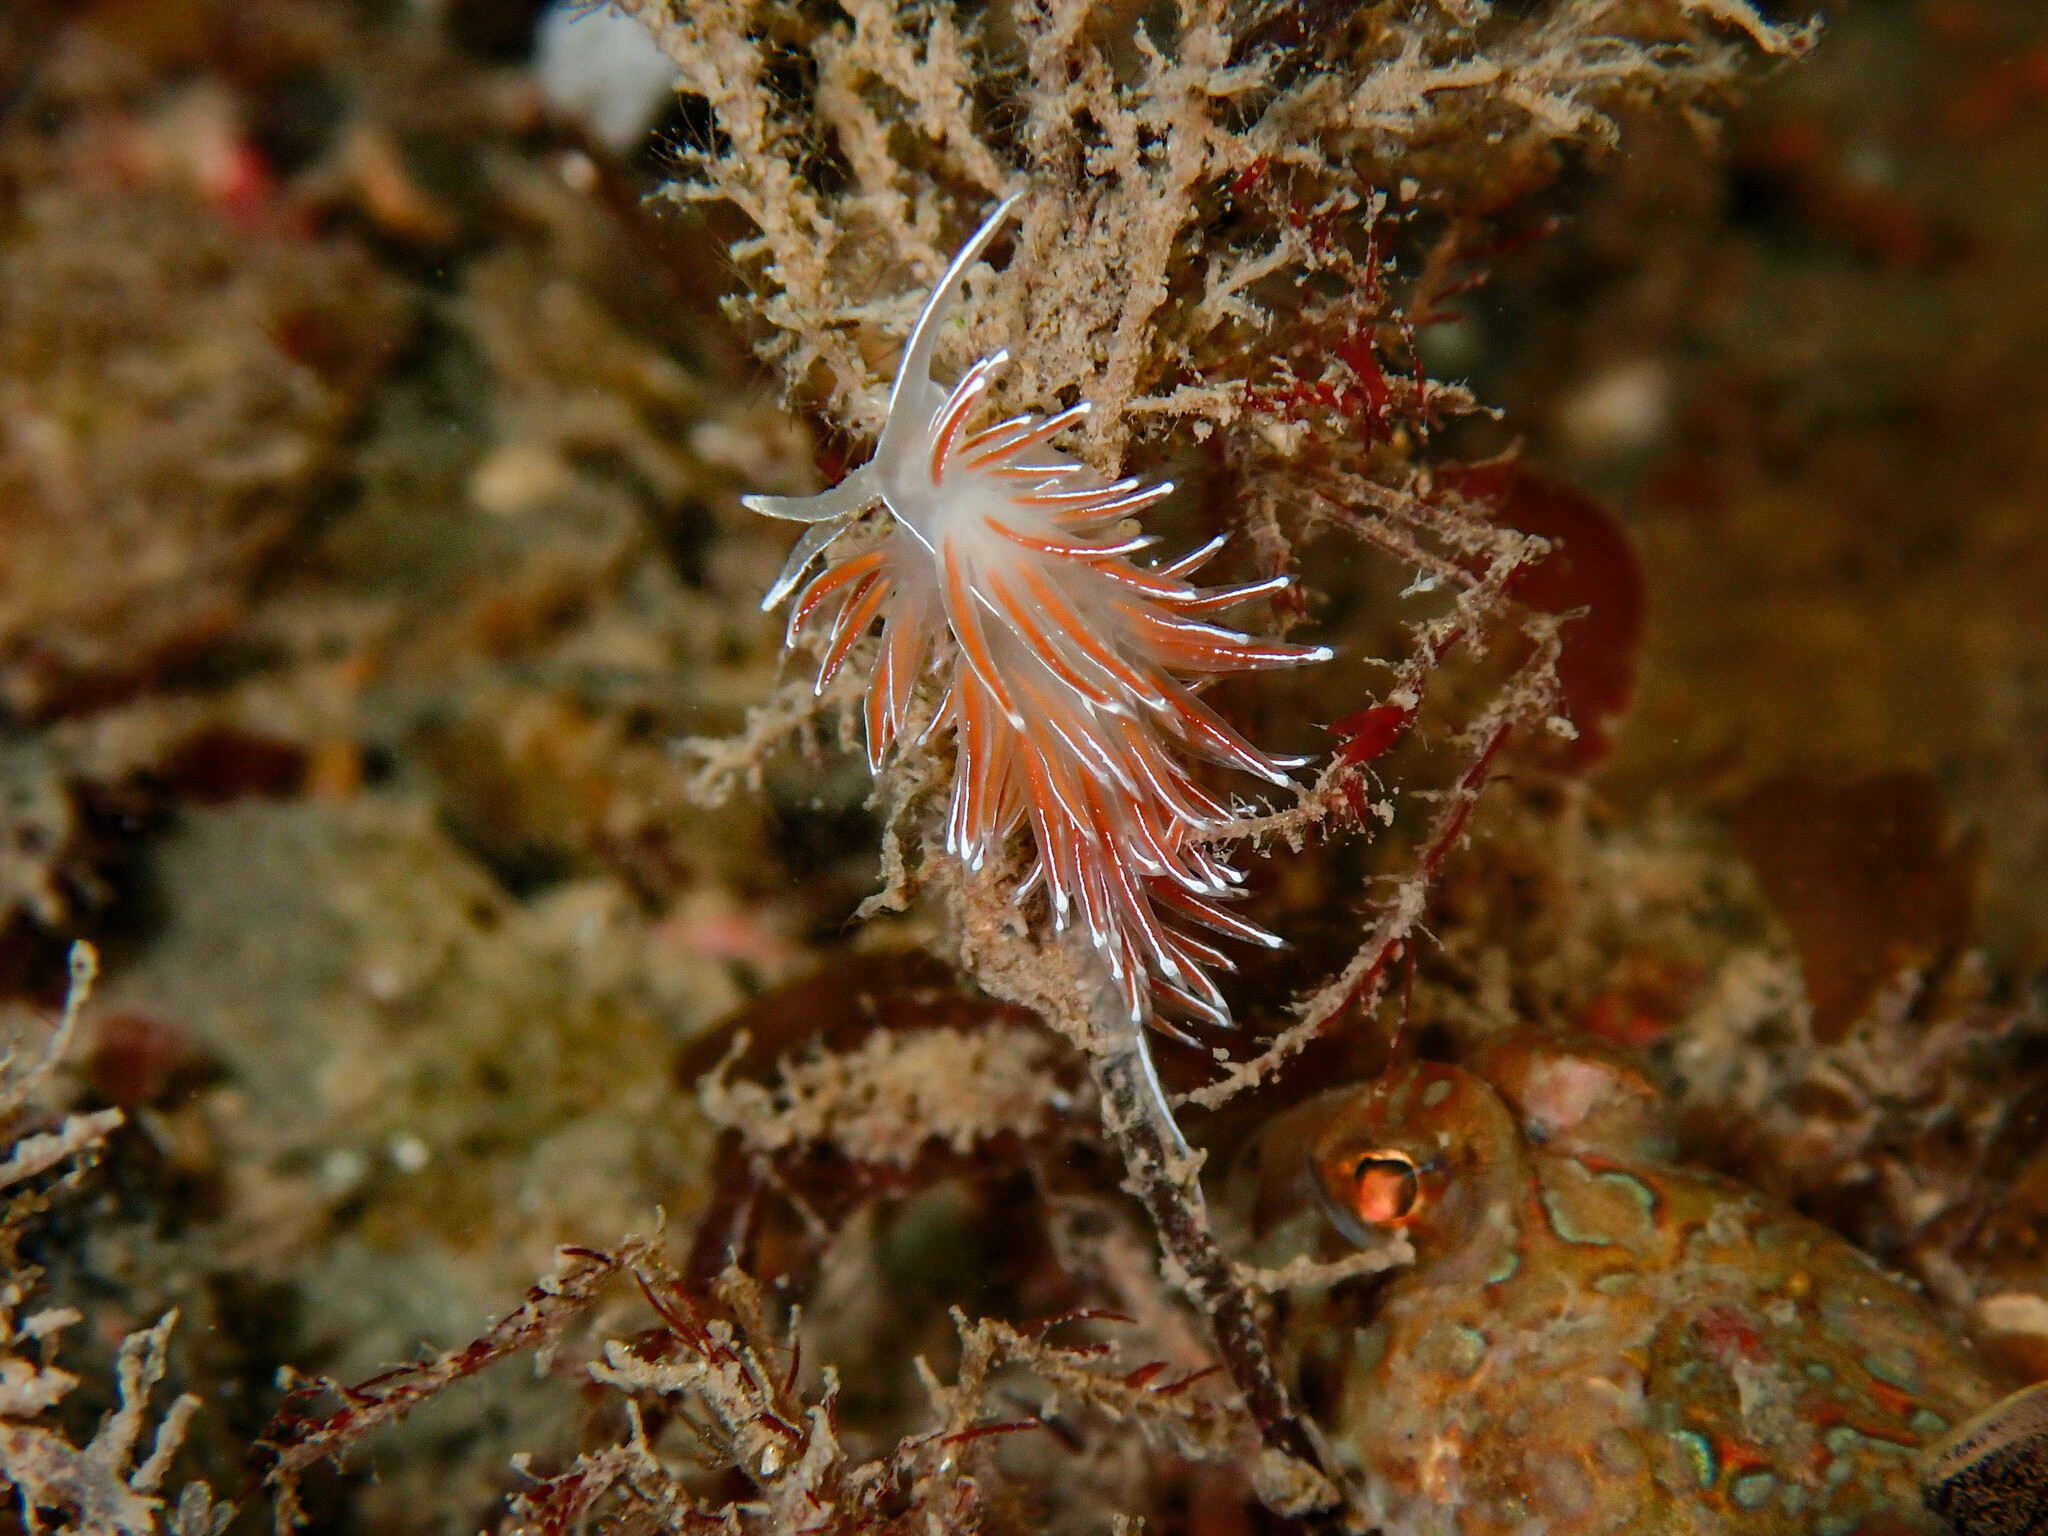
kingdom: Animalia
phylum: Mollusca
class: Gastropoda
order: Nudibranchia
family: Coryphellidae
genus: Coryphella
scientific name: Coryphella lineata
